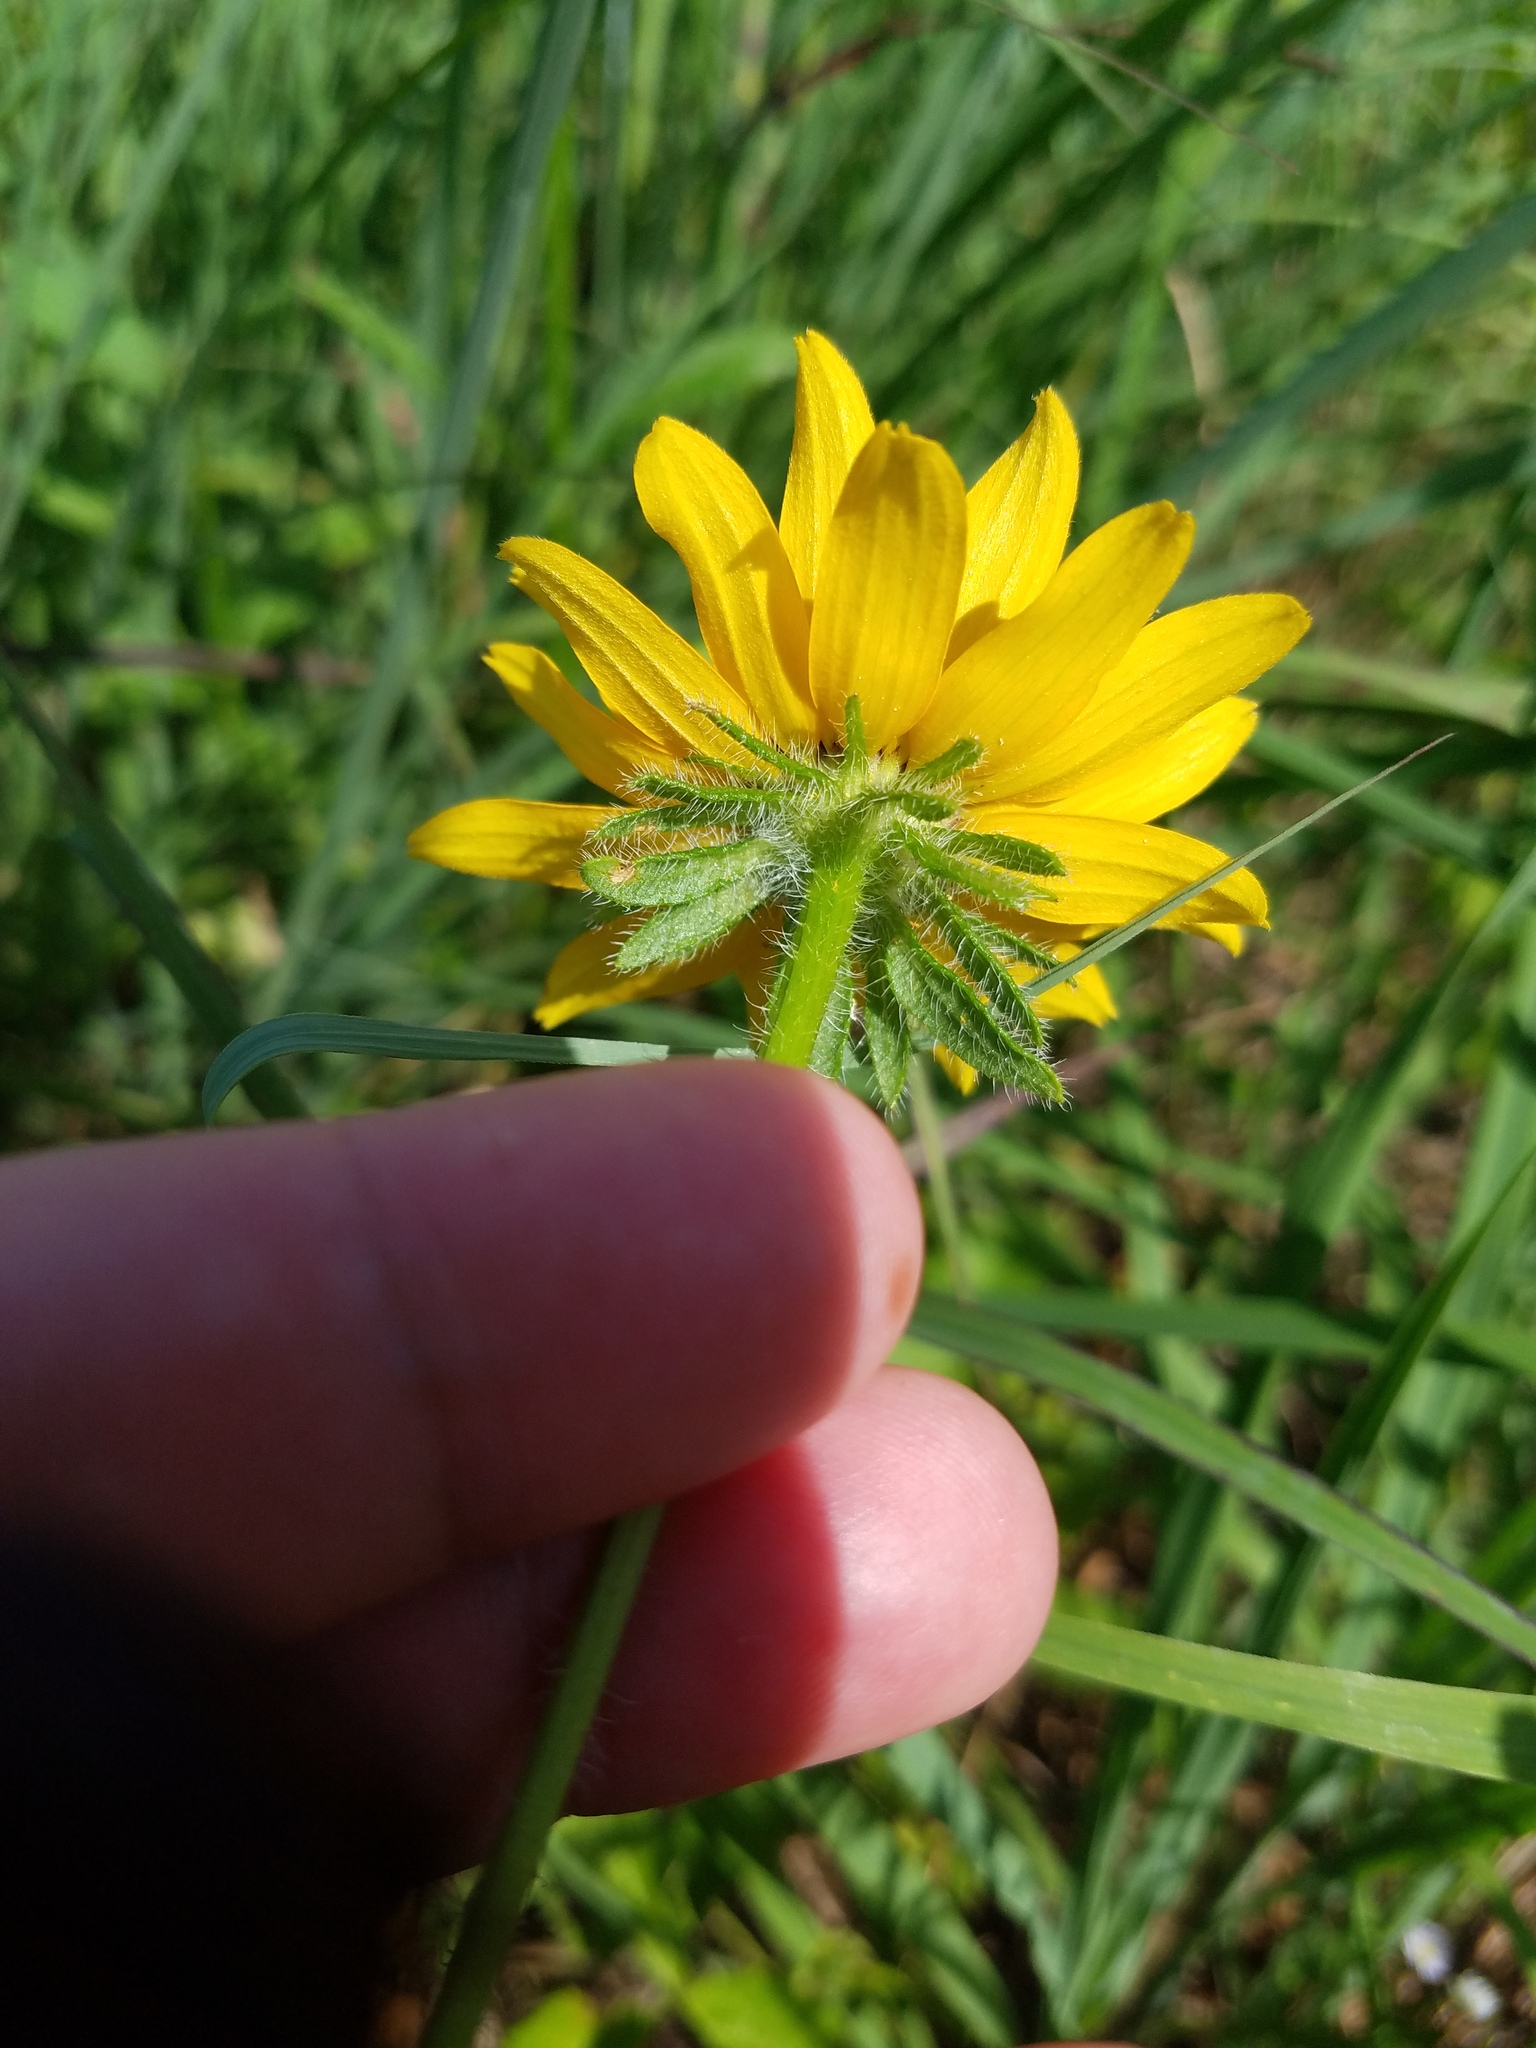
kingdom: Plantae
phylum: Tracheophyta
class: Magnoliopsida
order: Asterales
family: Asteraceae
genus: Rudbeckia
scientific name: Rudbeckia hirta
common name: Black-eyed-susan
